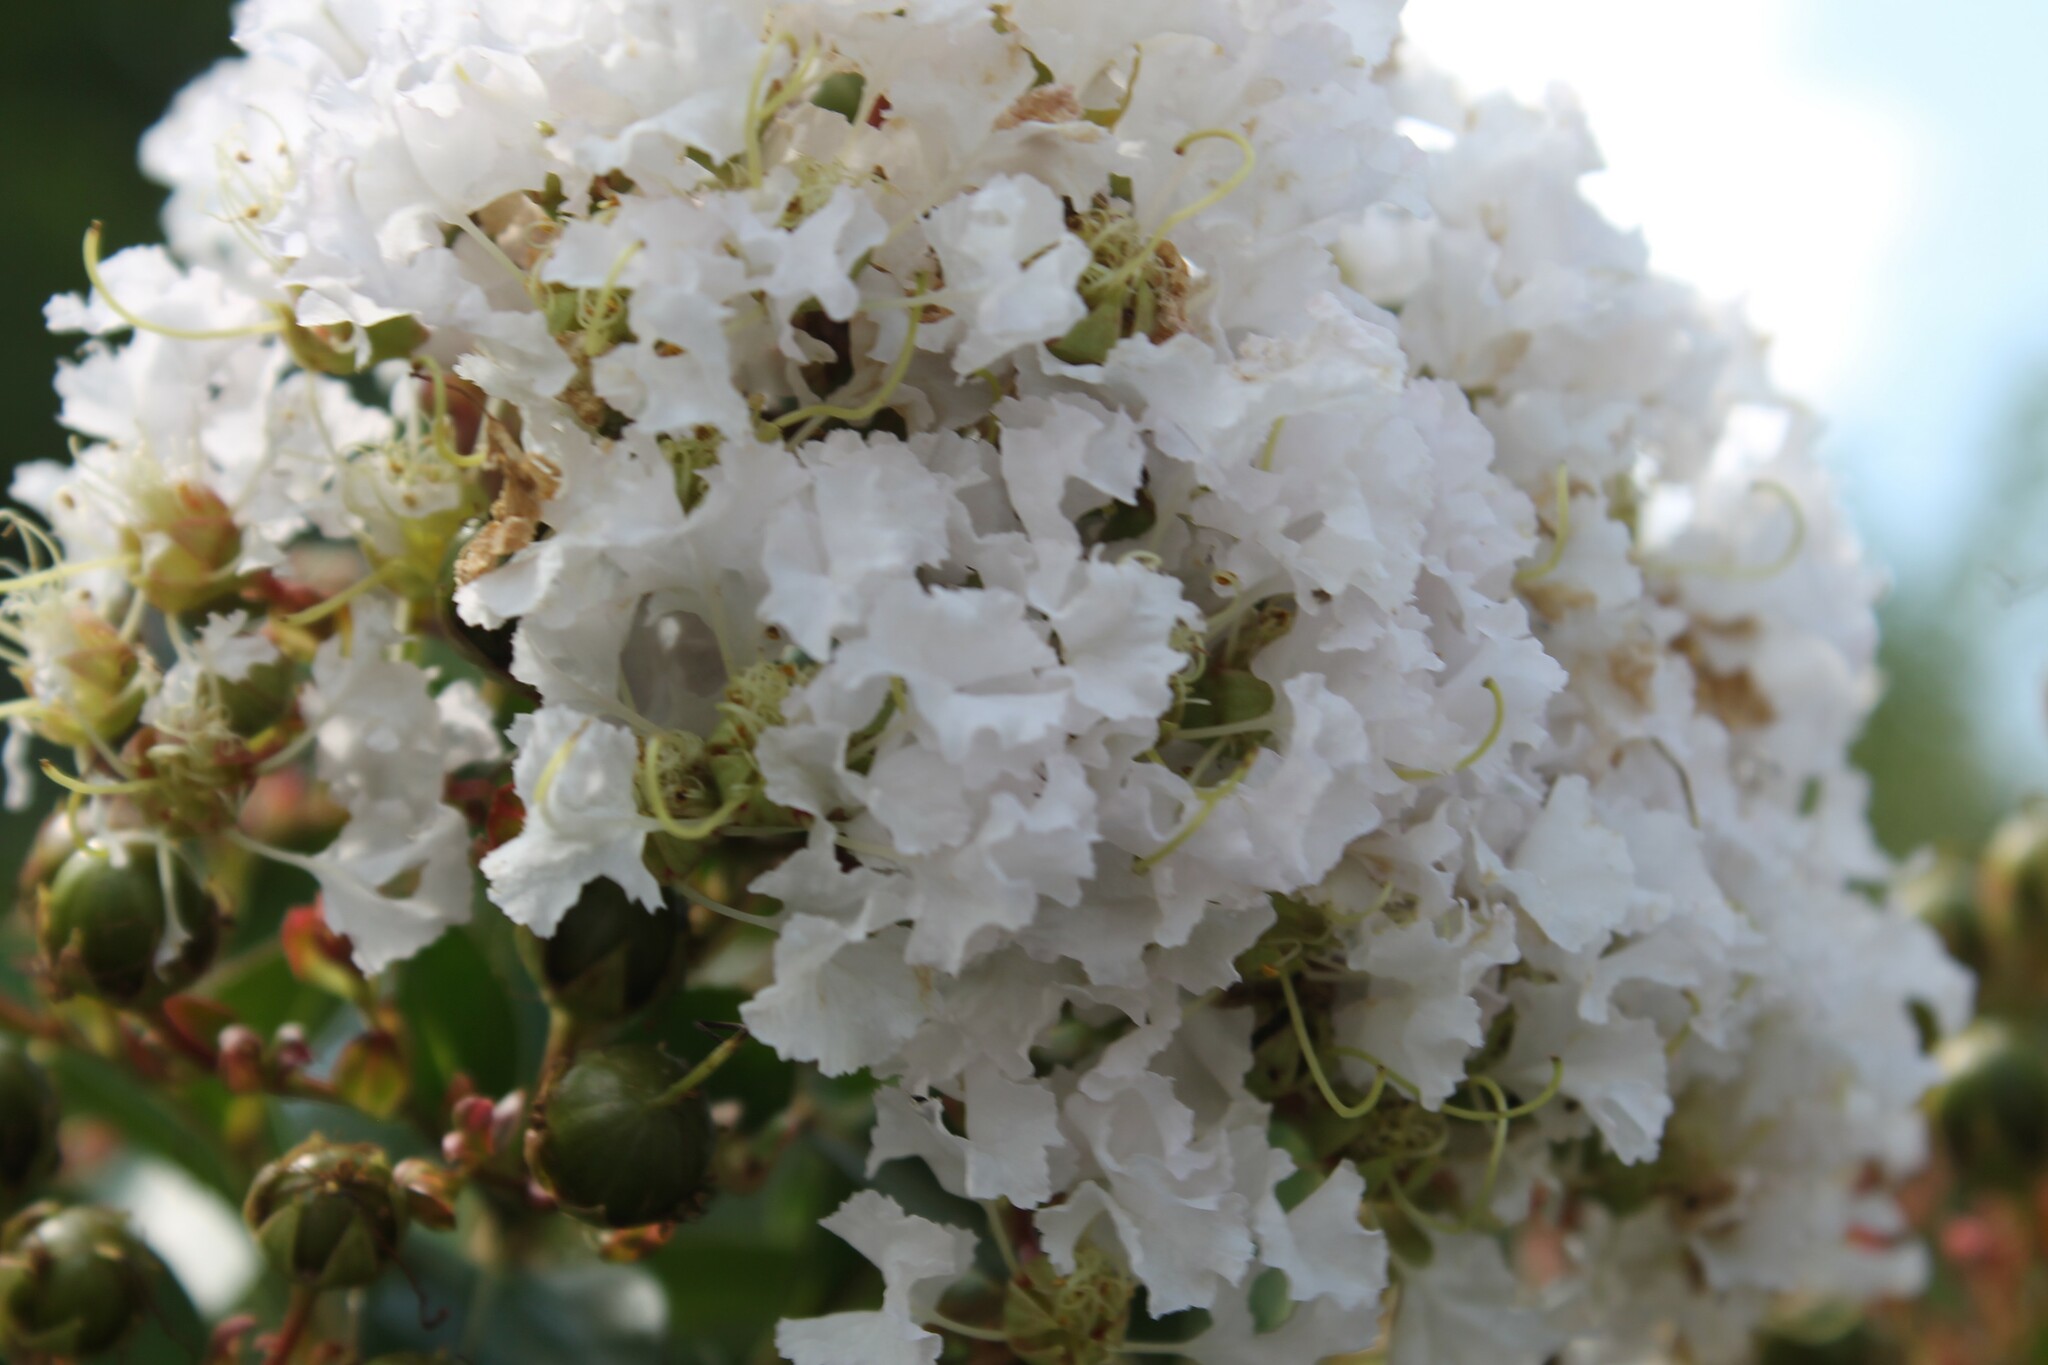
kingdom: Plantae
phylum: Tracheophyta
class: Magnoliopsida
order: Myrtales
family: Lythraceae
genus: Lagerstroemia
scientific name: Lagerstroemia indica
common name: Crape-myrtle
